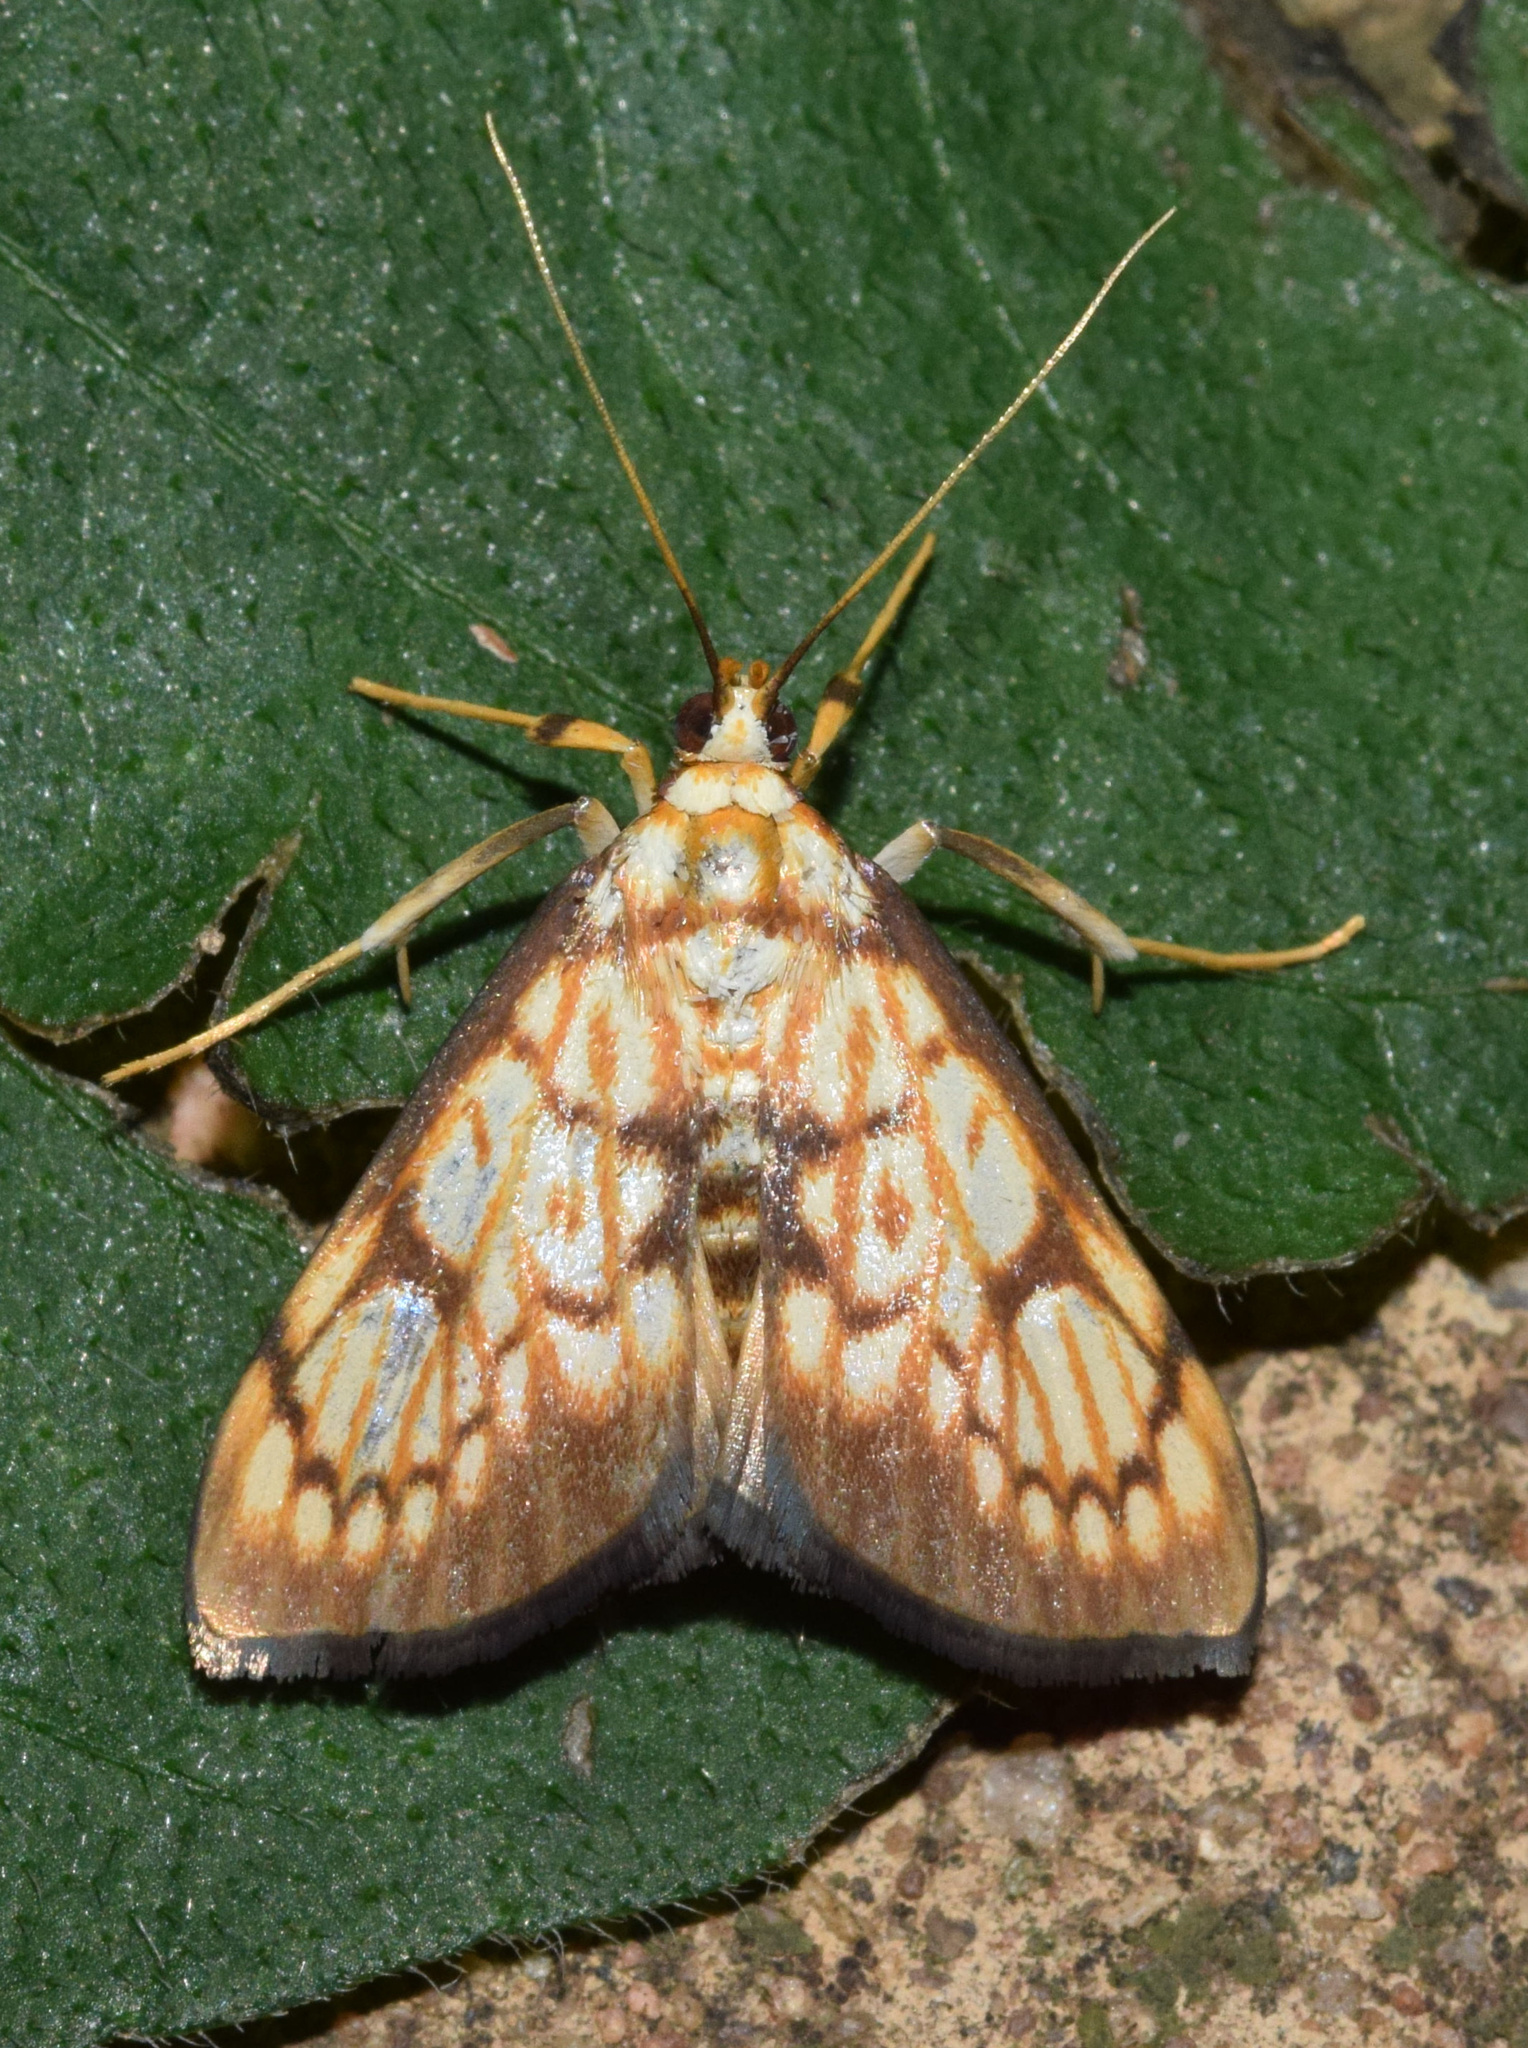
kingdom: Animalia
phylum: Arthropoda
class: Insecta
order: Lepidoptera
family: Crambidae
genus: Chalcidoptera
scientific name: Chalcidoptera rufilinealis
